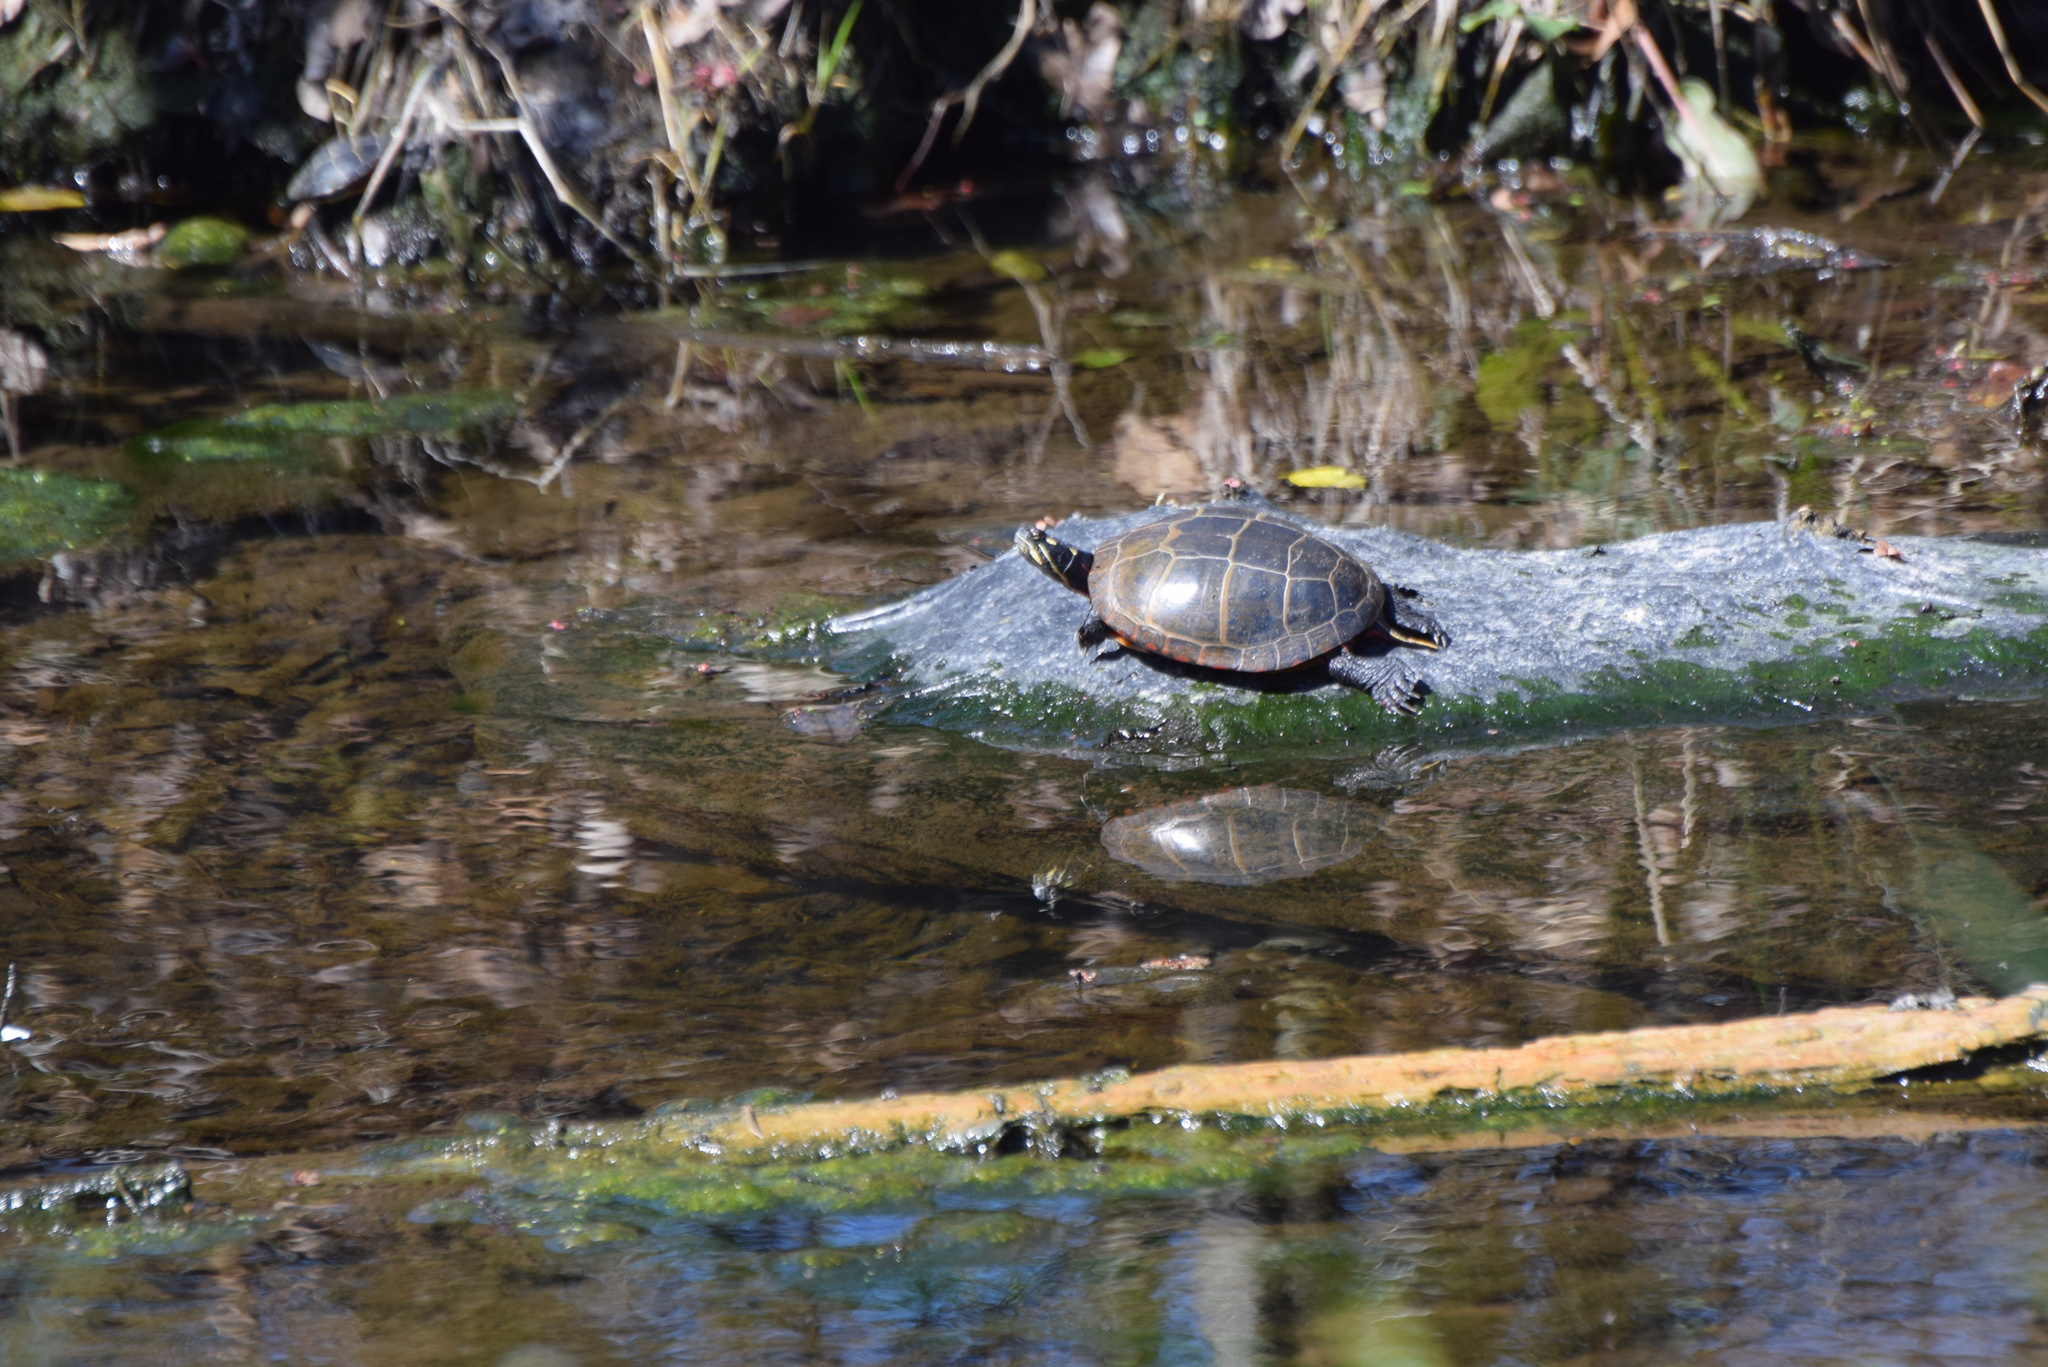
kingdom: Animalia
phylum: Chordata
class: Testudines
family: Emydidae
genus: Chrysemys
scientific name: Chrysemys picta
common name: Painted turtle
